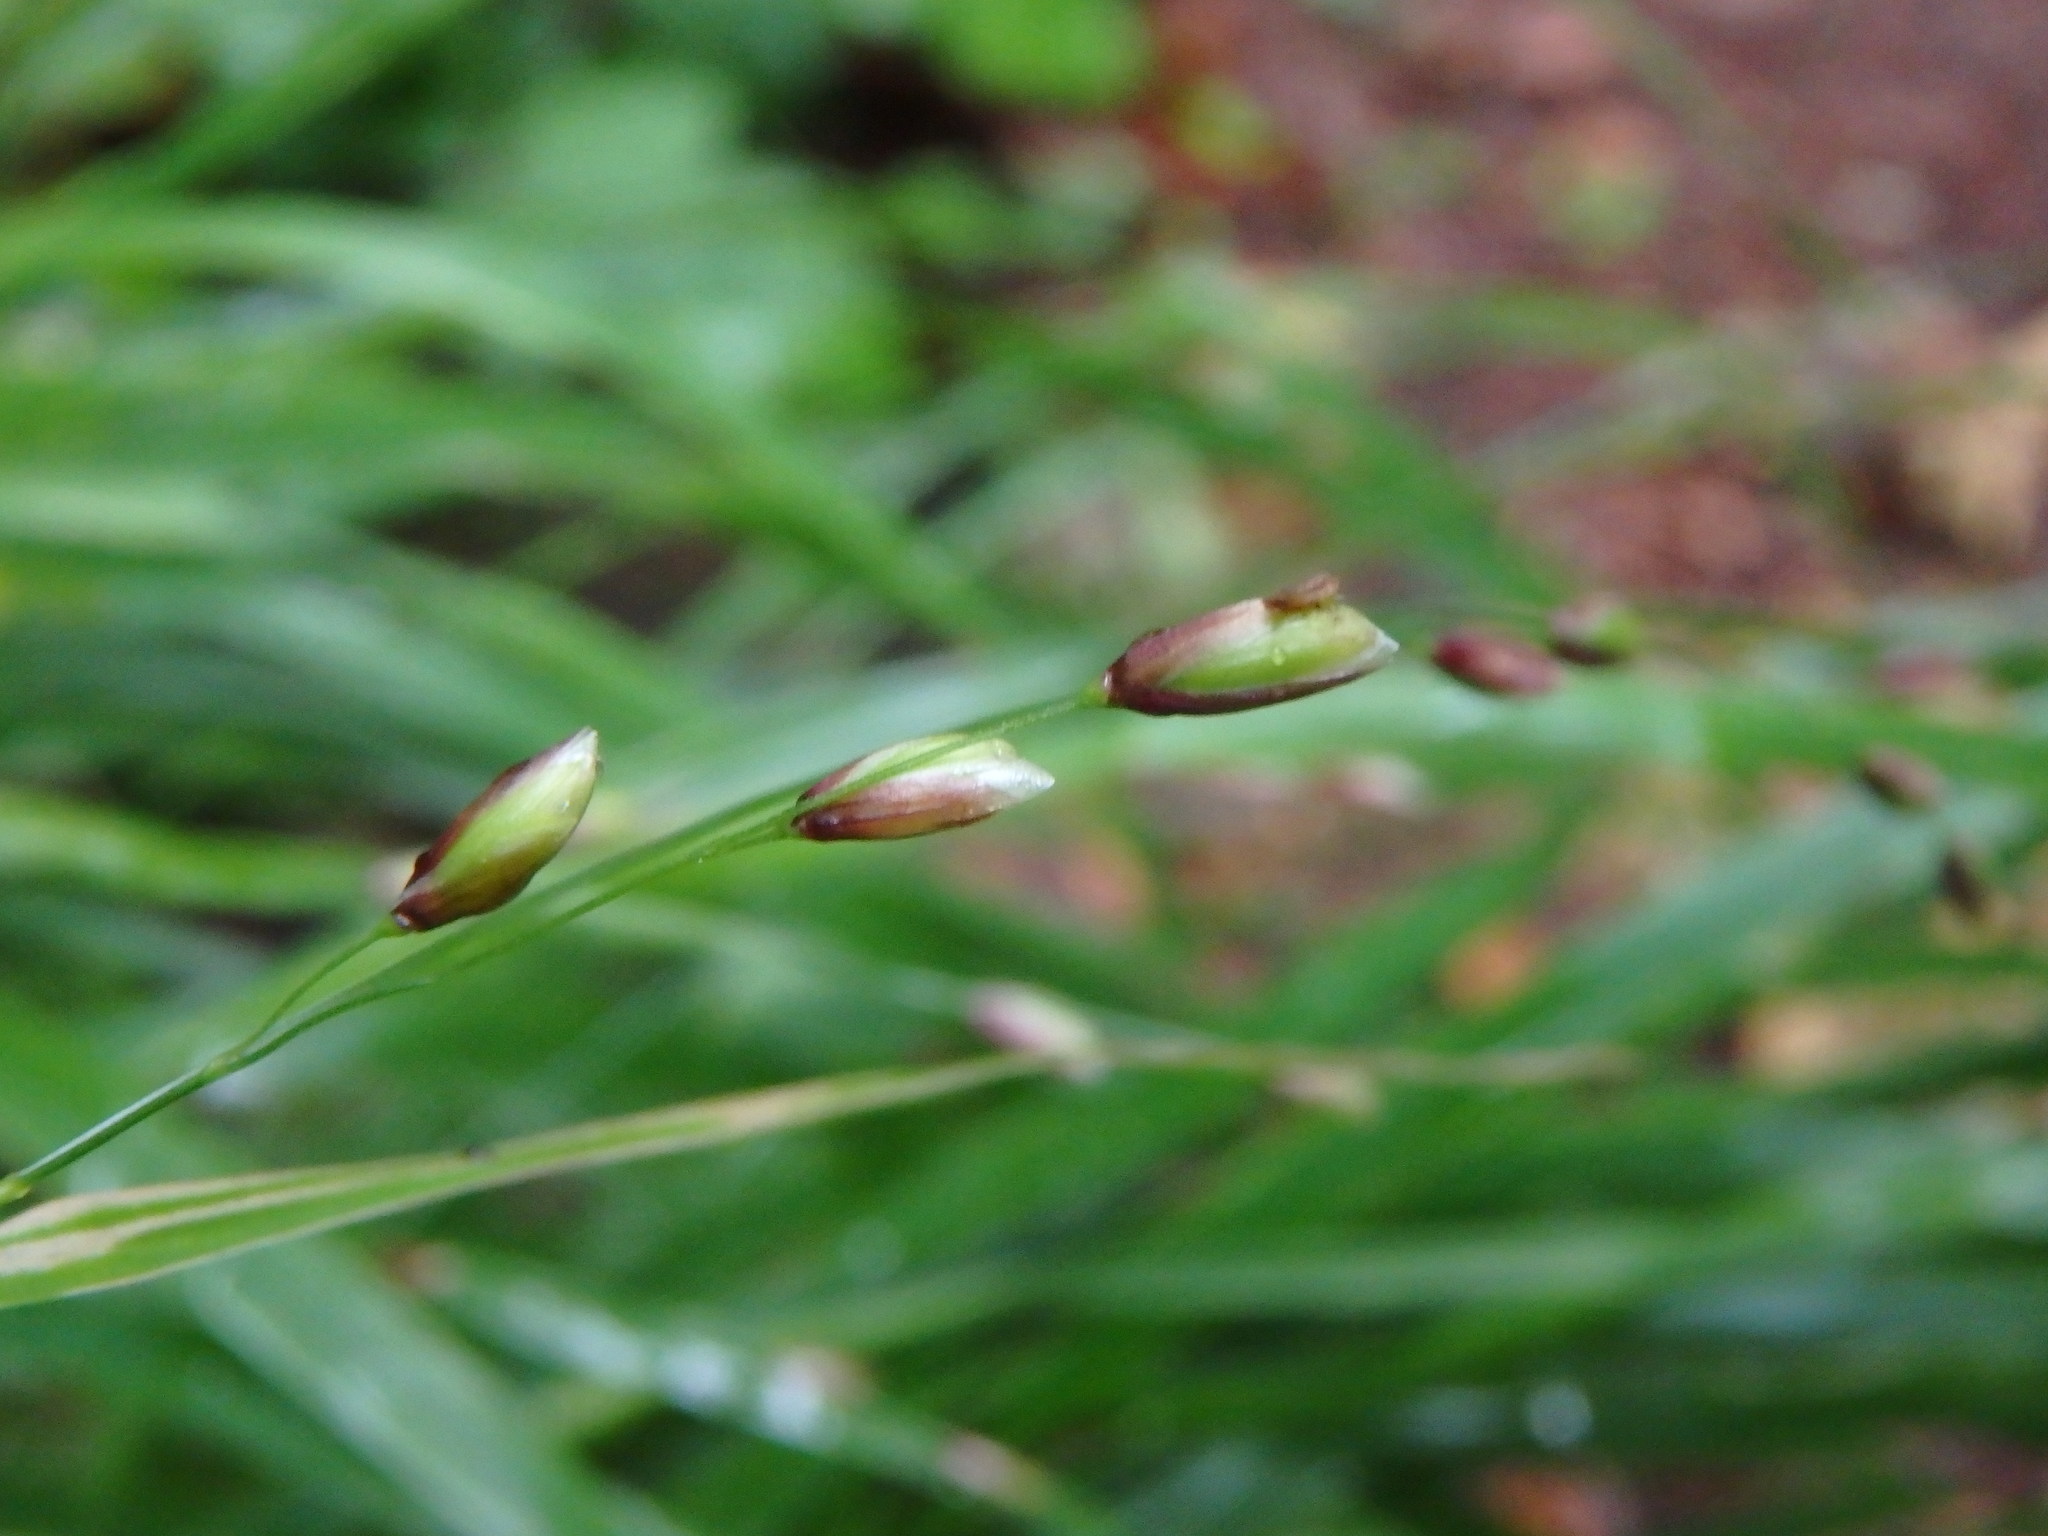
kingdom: Plantae
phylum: Tracheophyta
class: Liliopsida
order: Poales
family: Poaceae
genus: Melica
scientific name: Melica uniflora
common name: Wood melick
